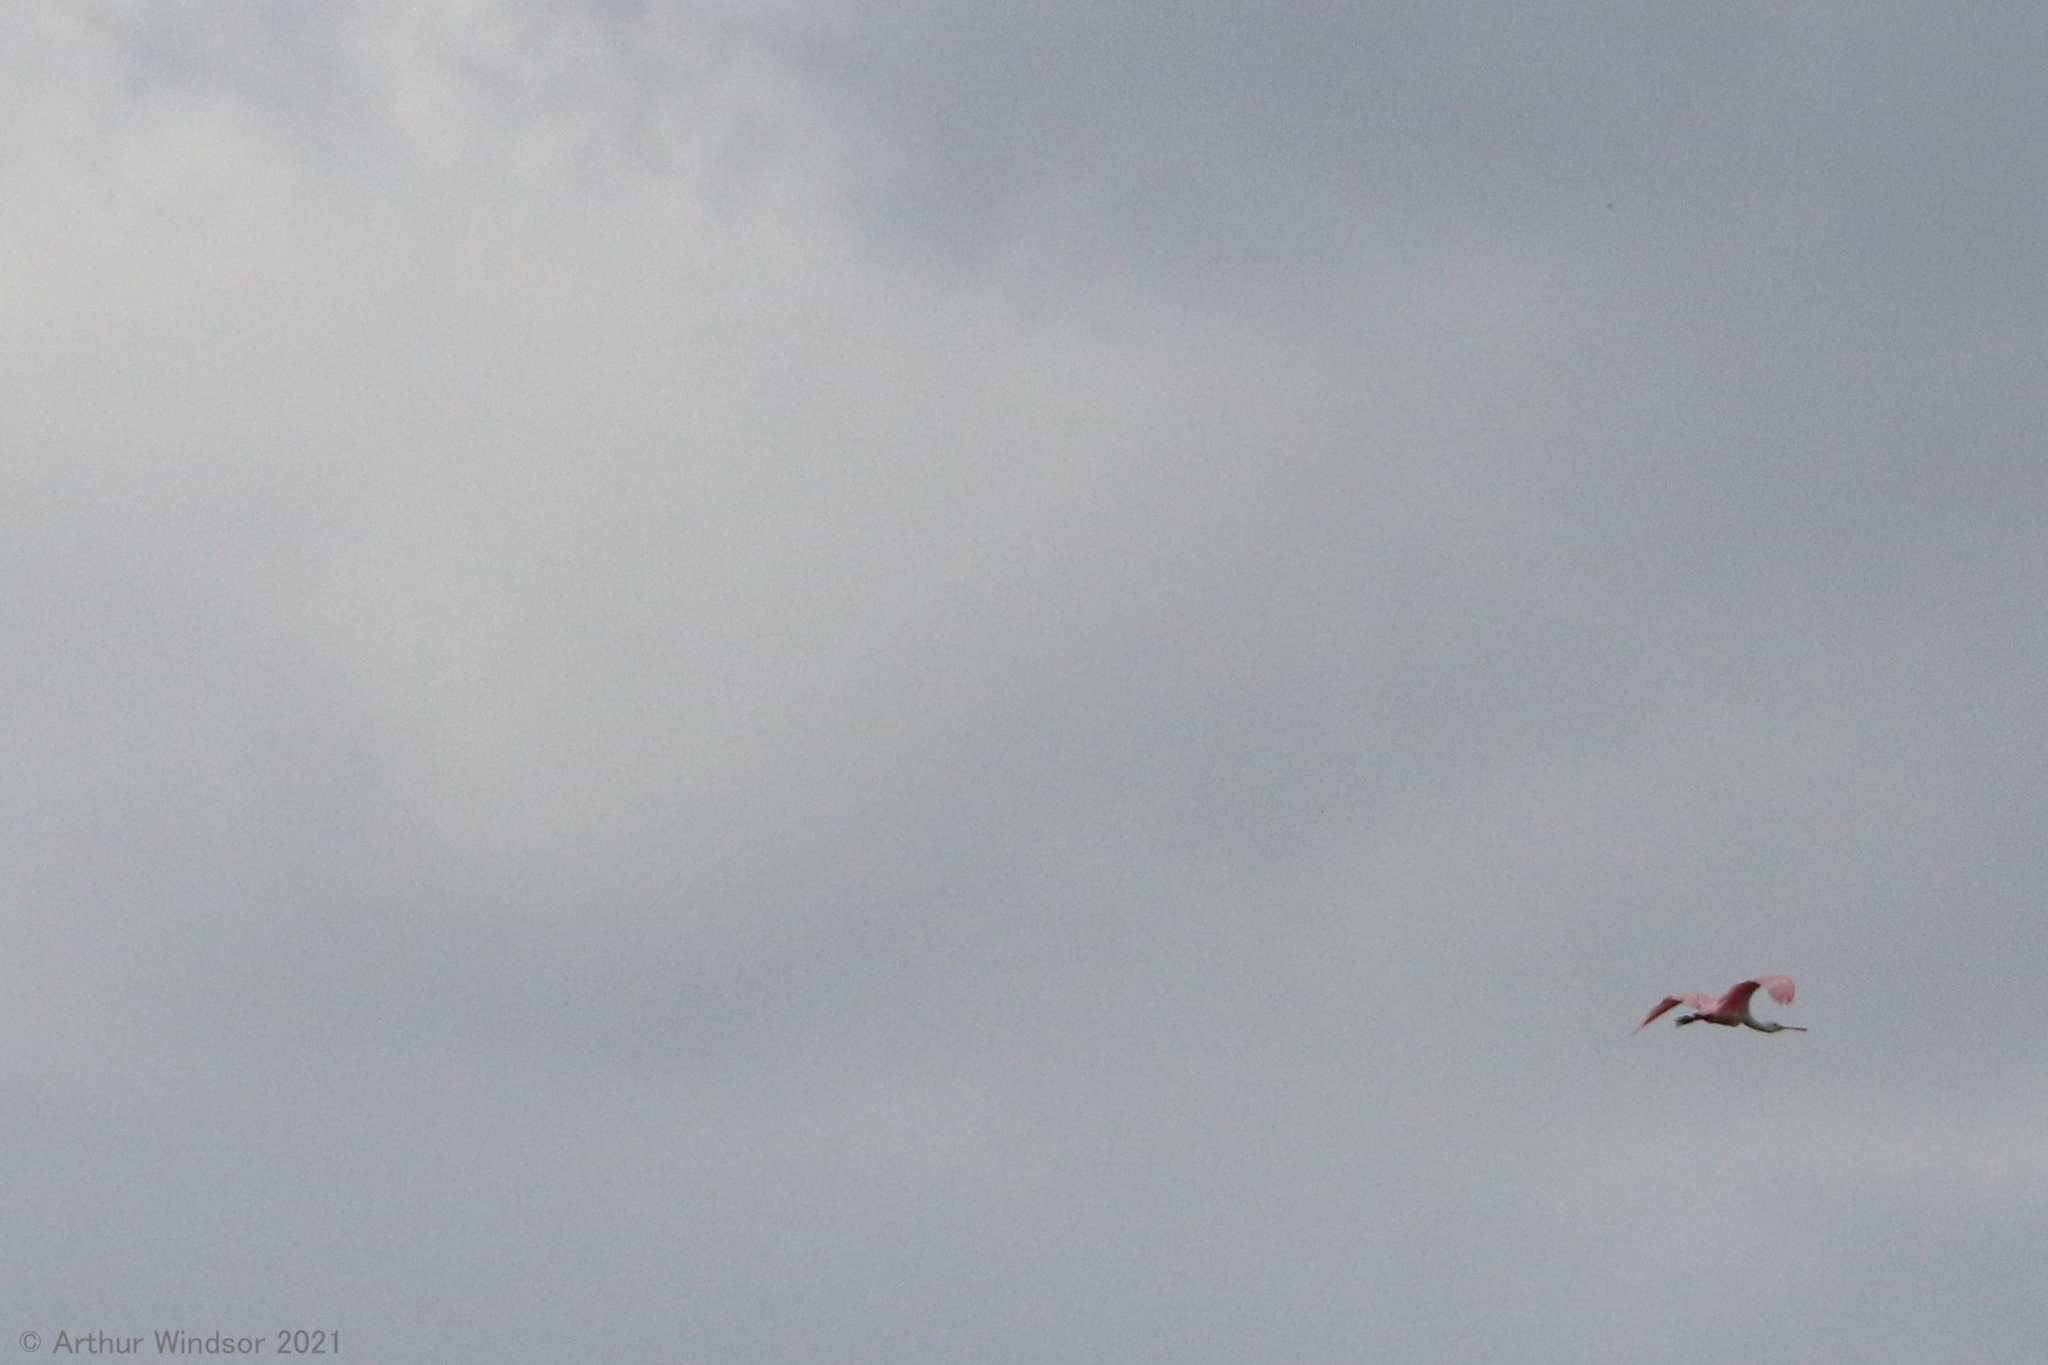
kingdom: Animalia
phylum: Chordata
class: Aves
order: Pelecaniformes
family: Threskiornithidae
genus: Platalea
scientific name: Platalea ajaja
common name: Roseate spoonbill
